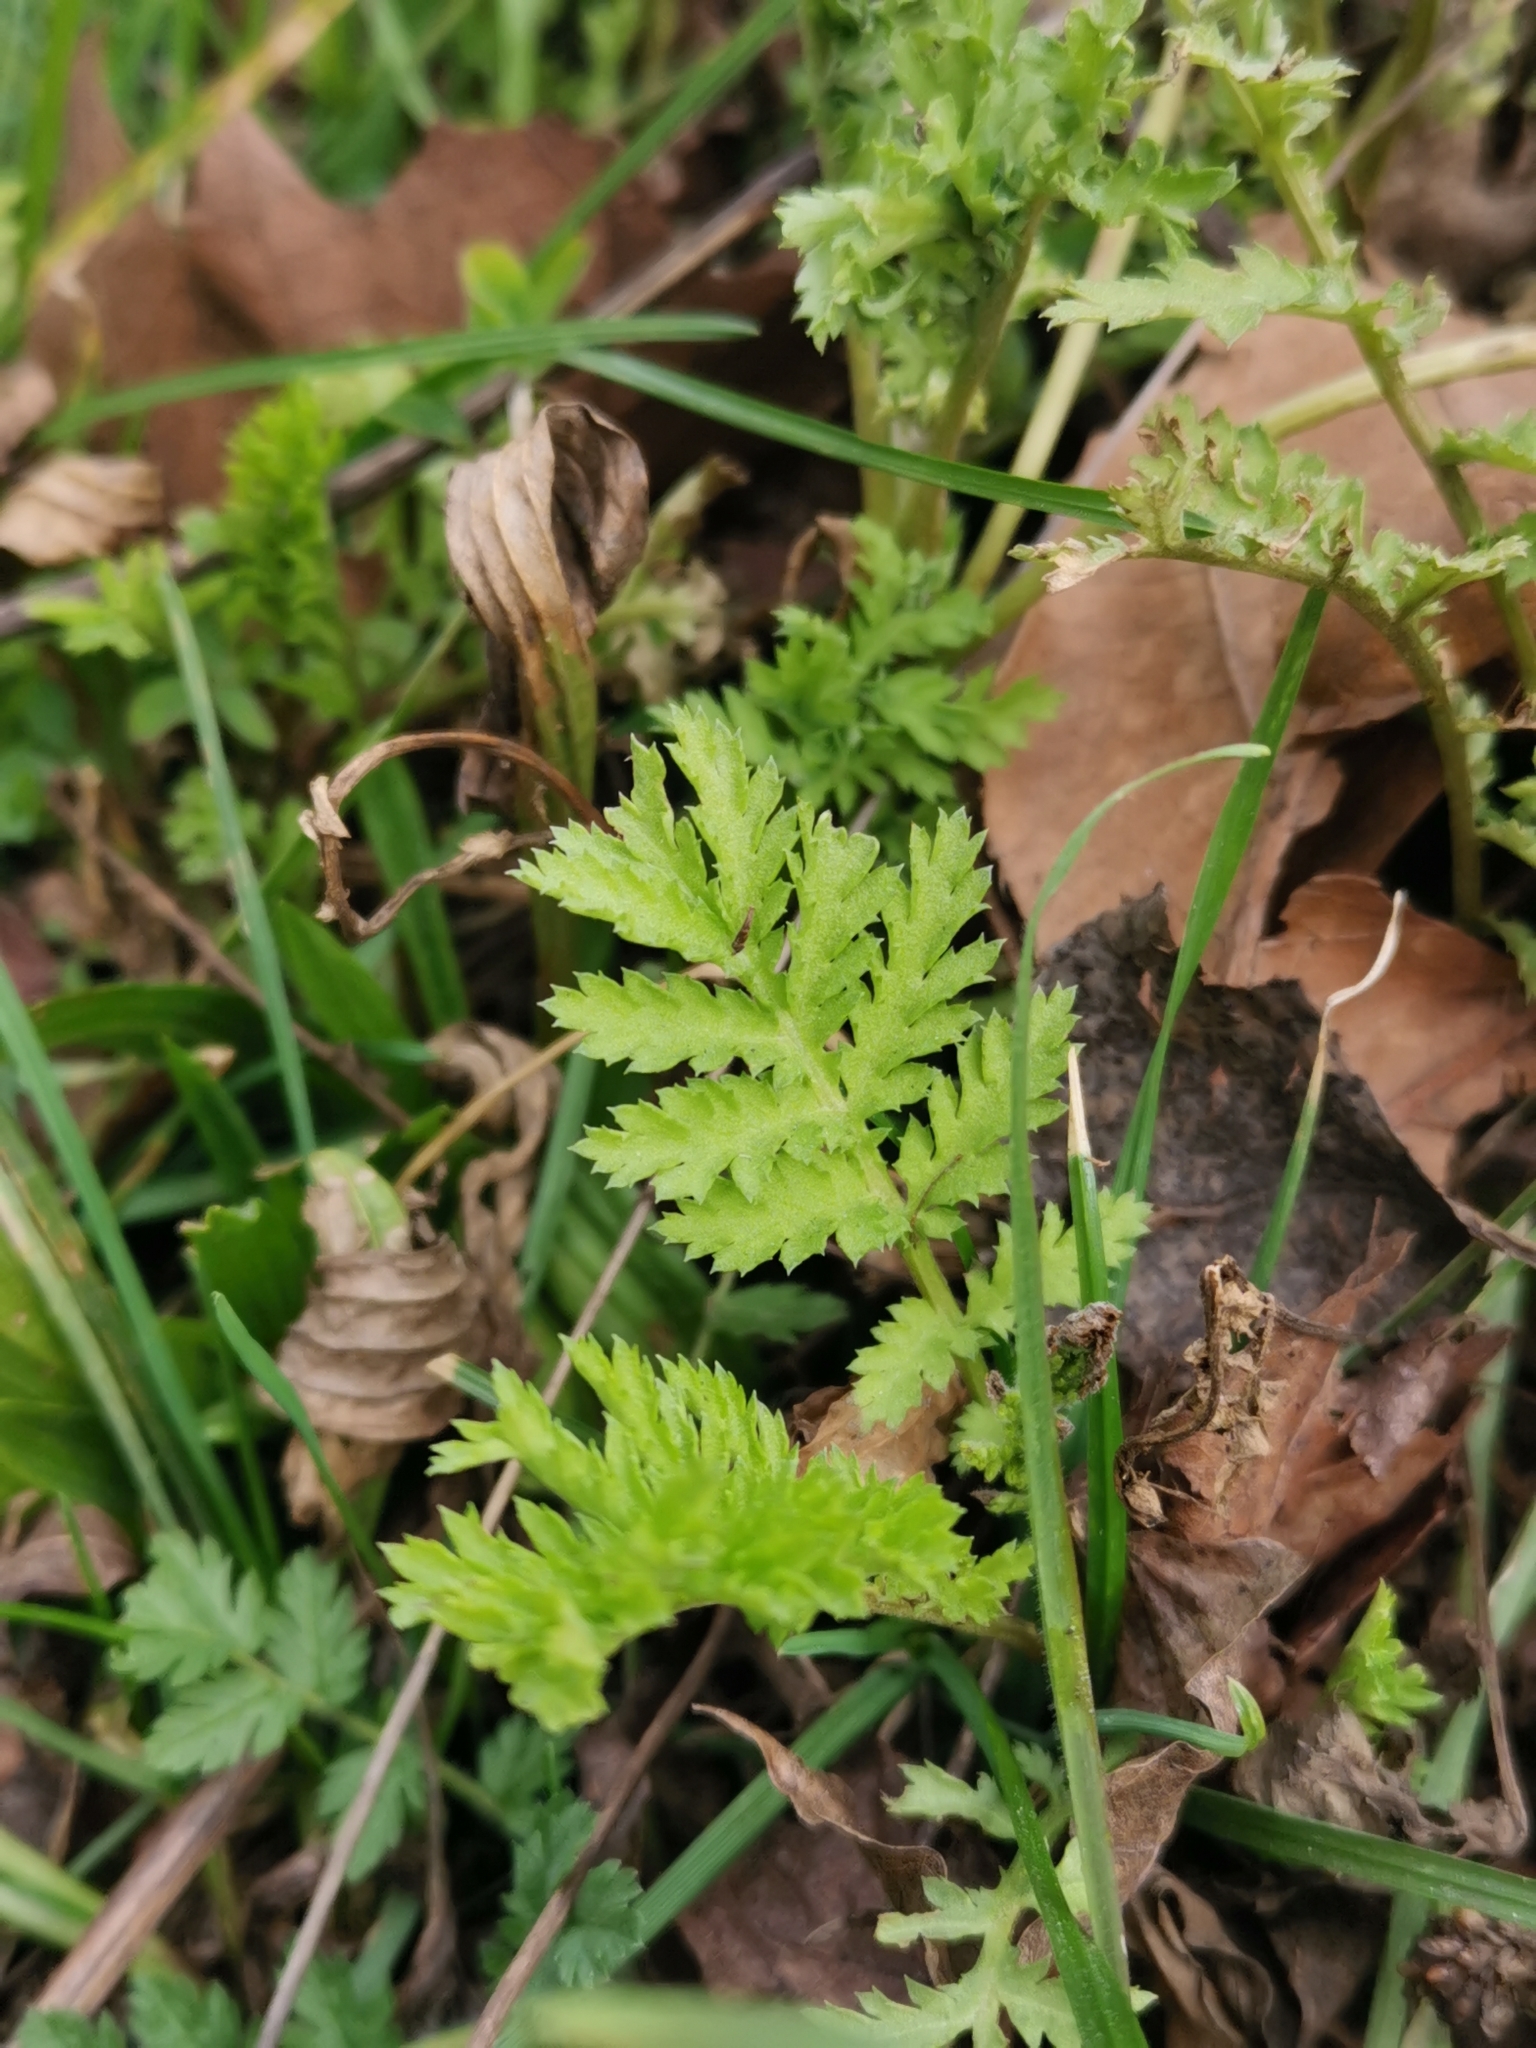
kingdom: Plantae
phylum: Tracheophyta
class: Magnoliopsida
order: Asterales
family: Asteraceae
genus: Tanacetum
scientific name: Tanacetum vulgare
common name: Common tansy
